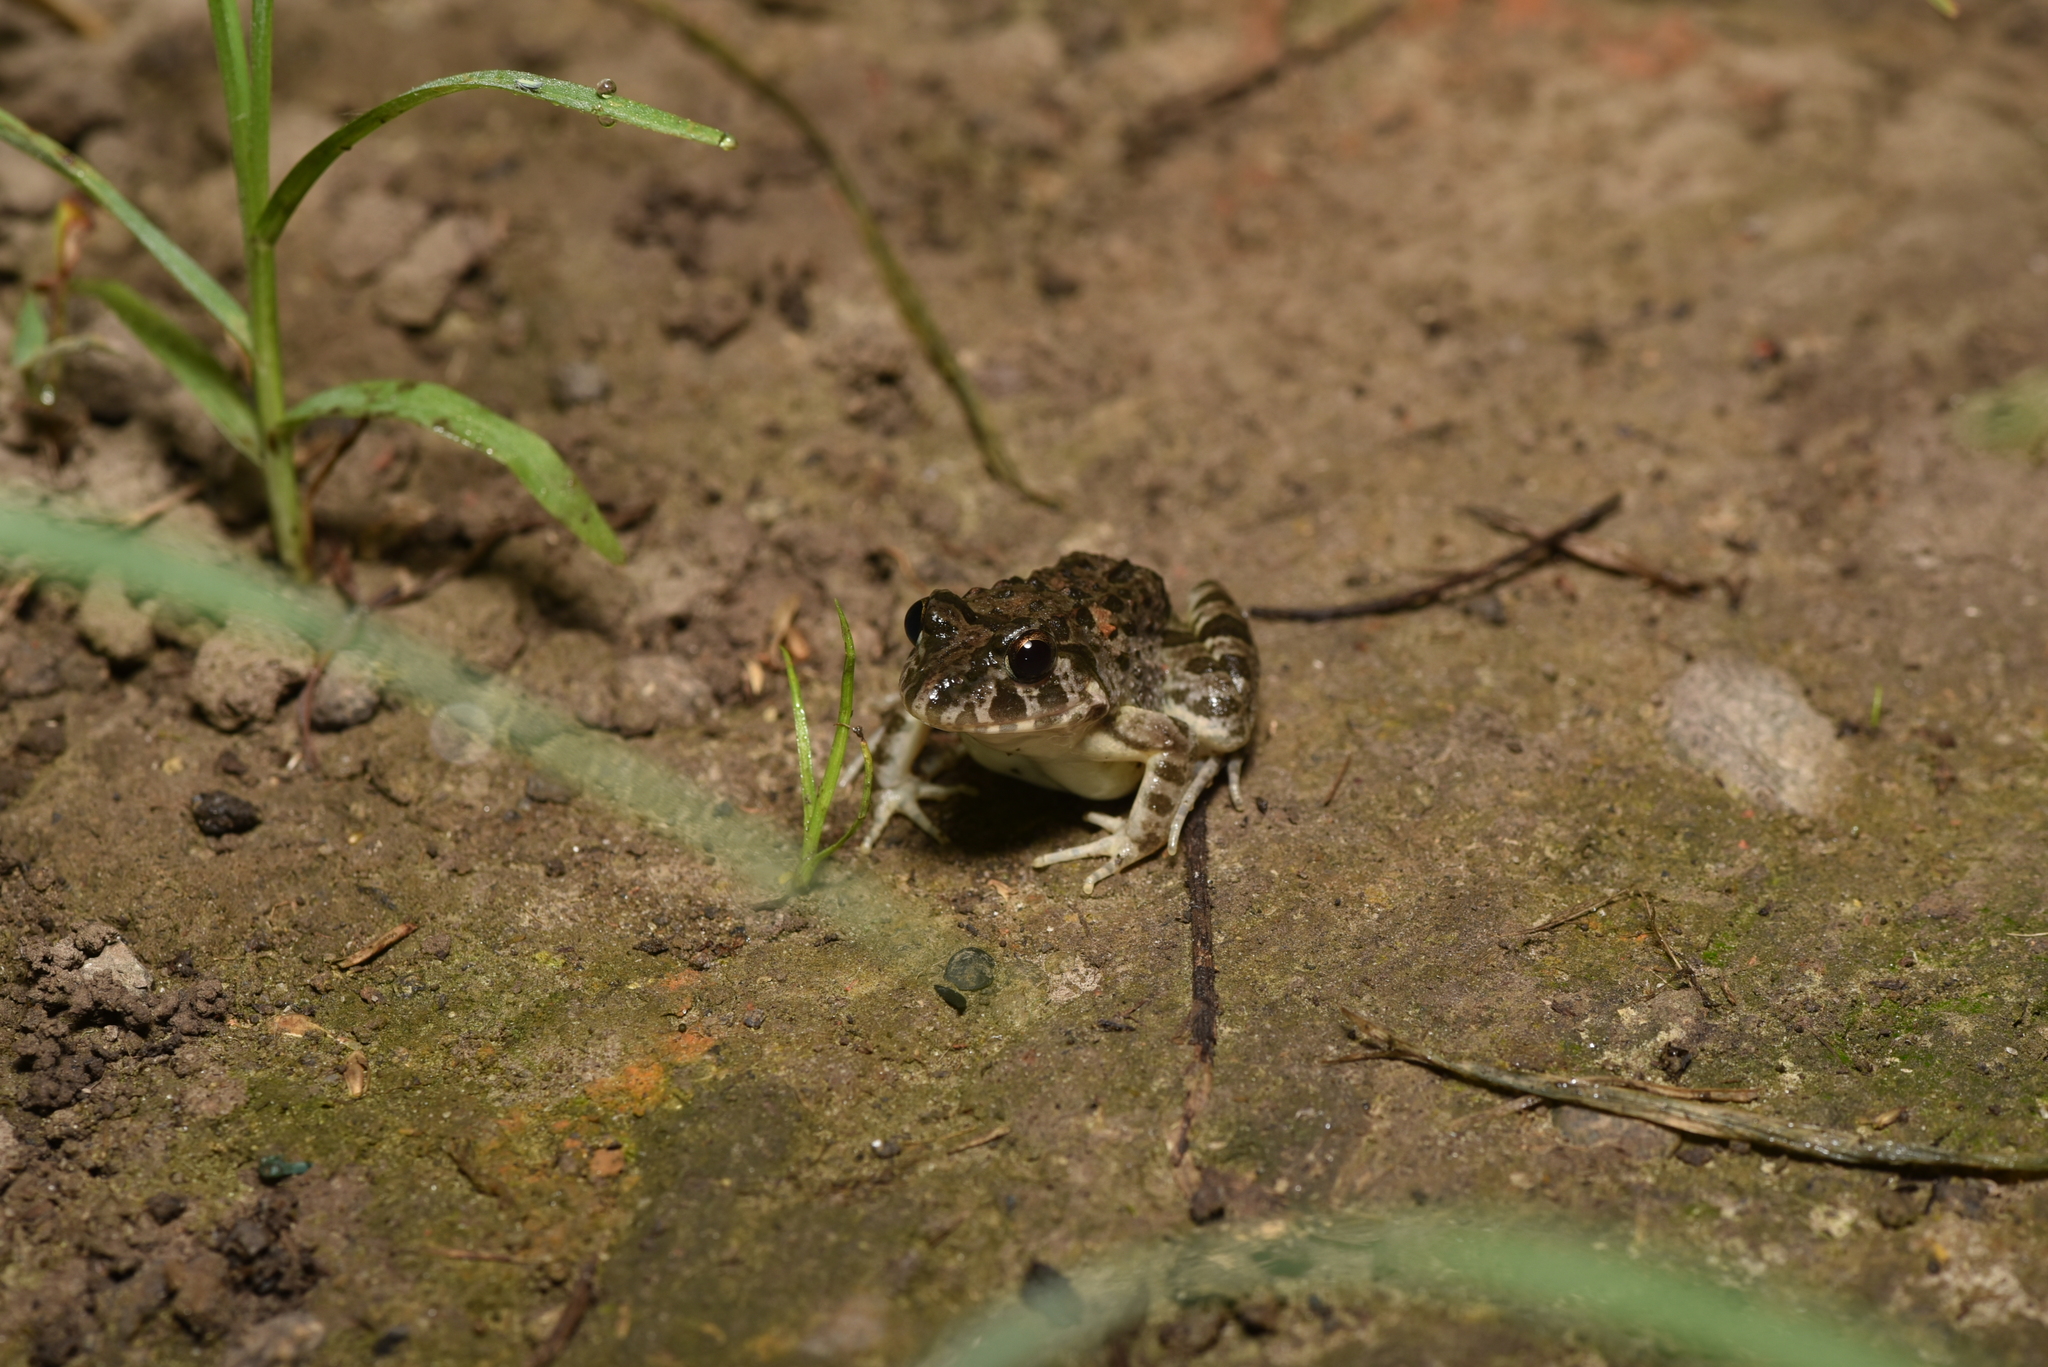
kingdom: Animalia
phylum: Chordata
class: Amphibia
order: Anura
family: Dicroglossidae
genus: Fejervarya
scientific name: Fejervarya limnocharis
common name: Asian grass frog/common pond frog/field frog/grass frog/indian rice frog
